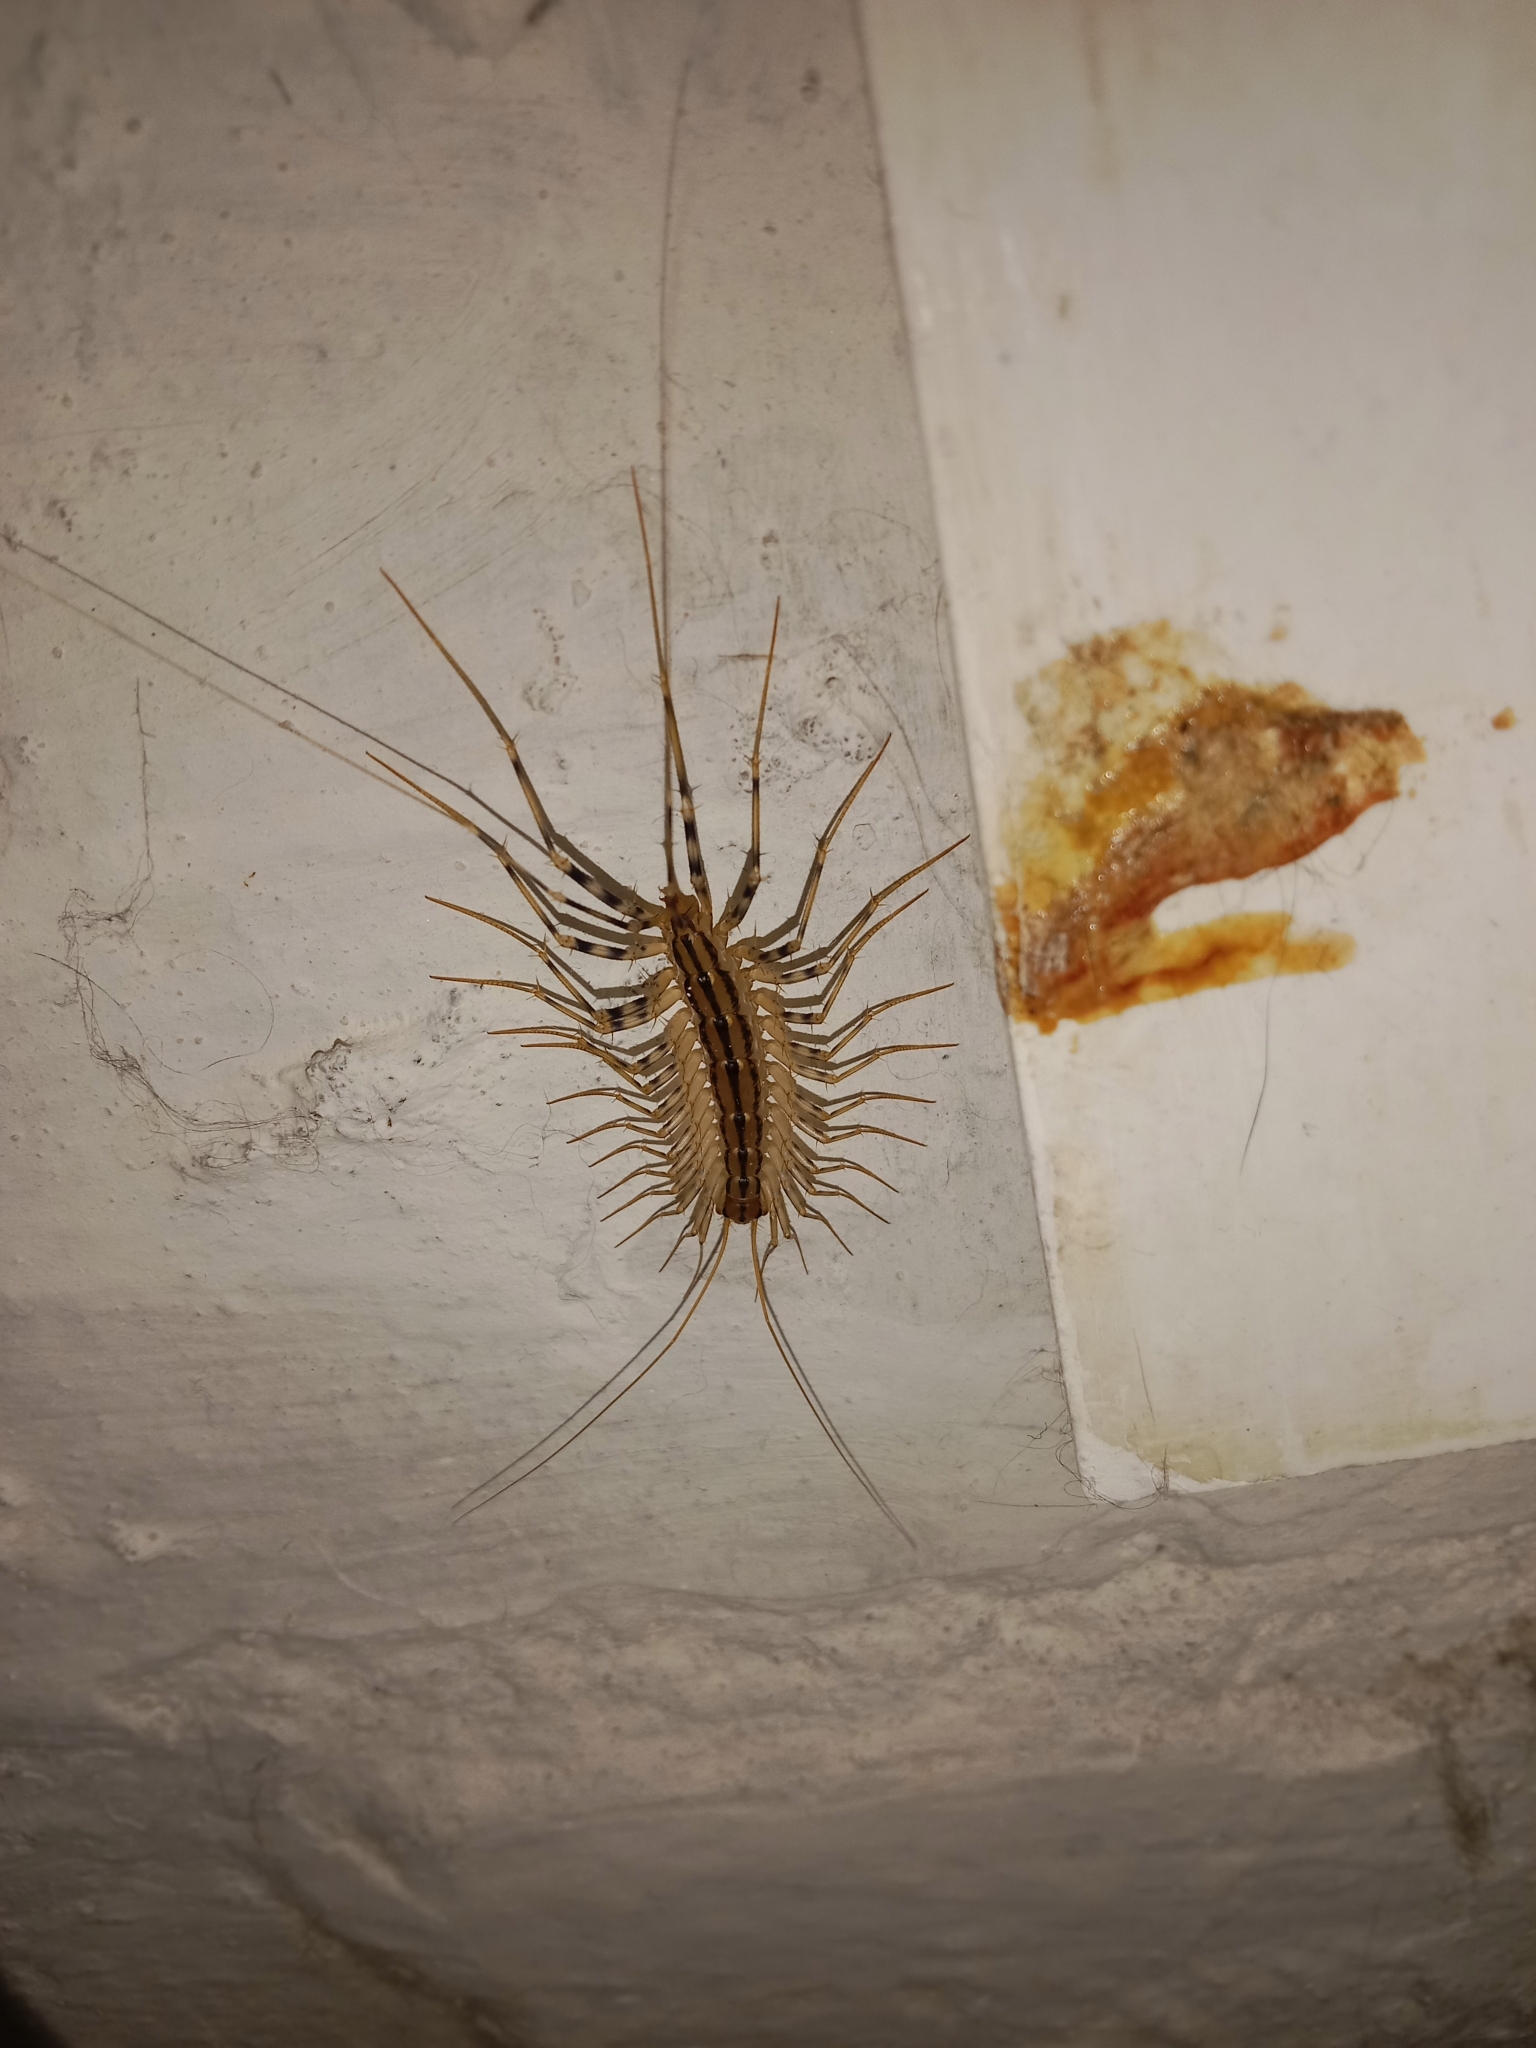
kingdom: Animalia
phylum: Arthropoda
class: Chilopoda
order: Scutigeromorpha
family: Scutigeridae
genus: Scutigera
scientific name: Scutigera coleoptrata
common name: House centipede
